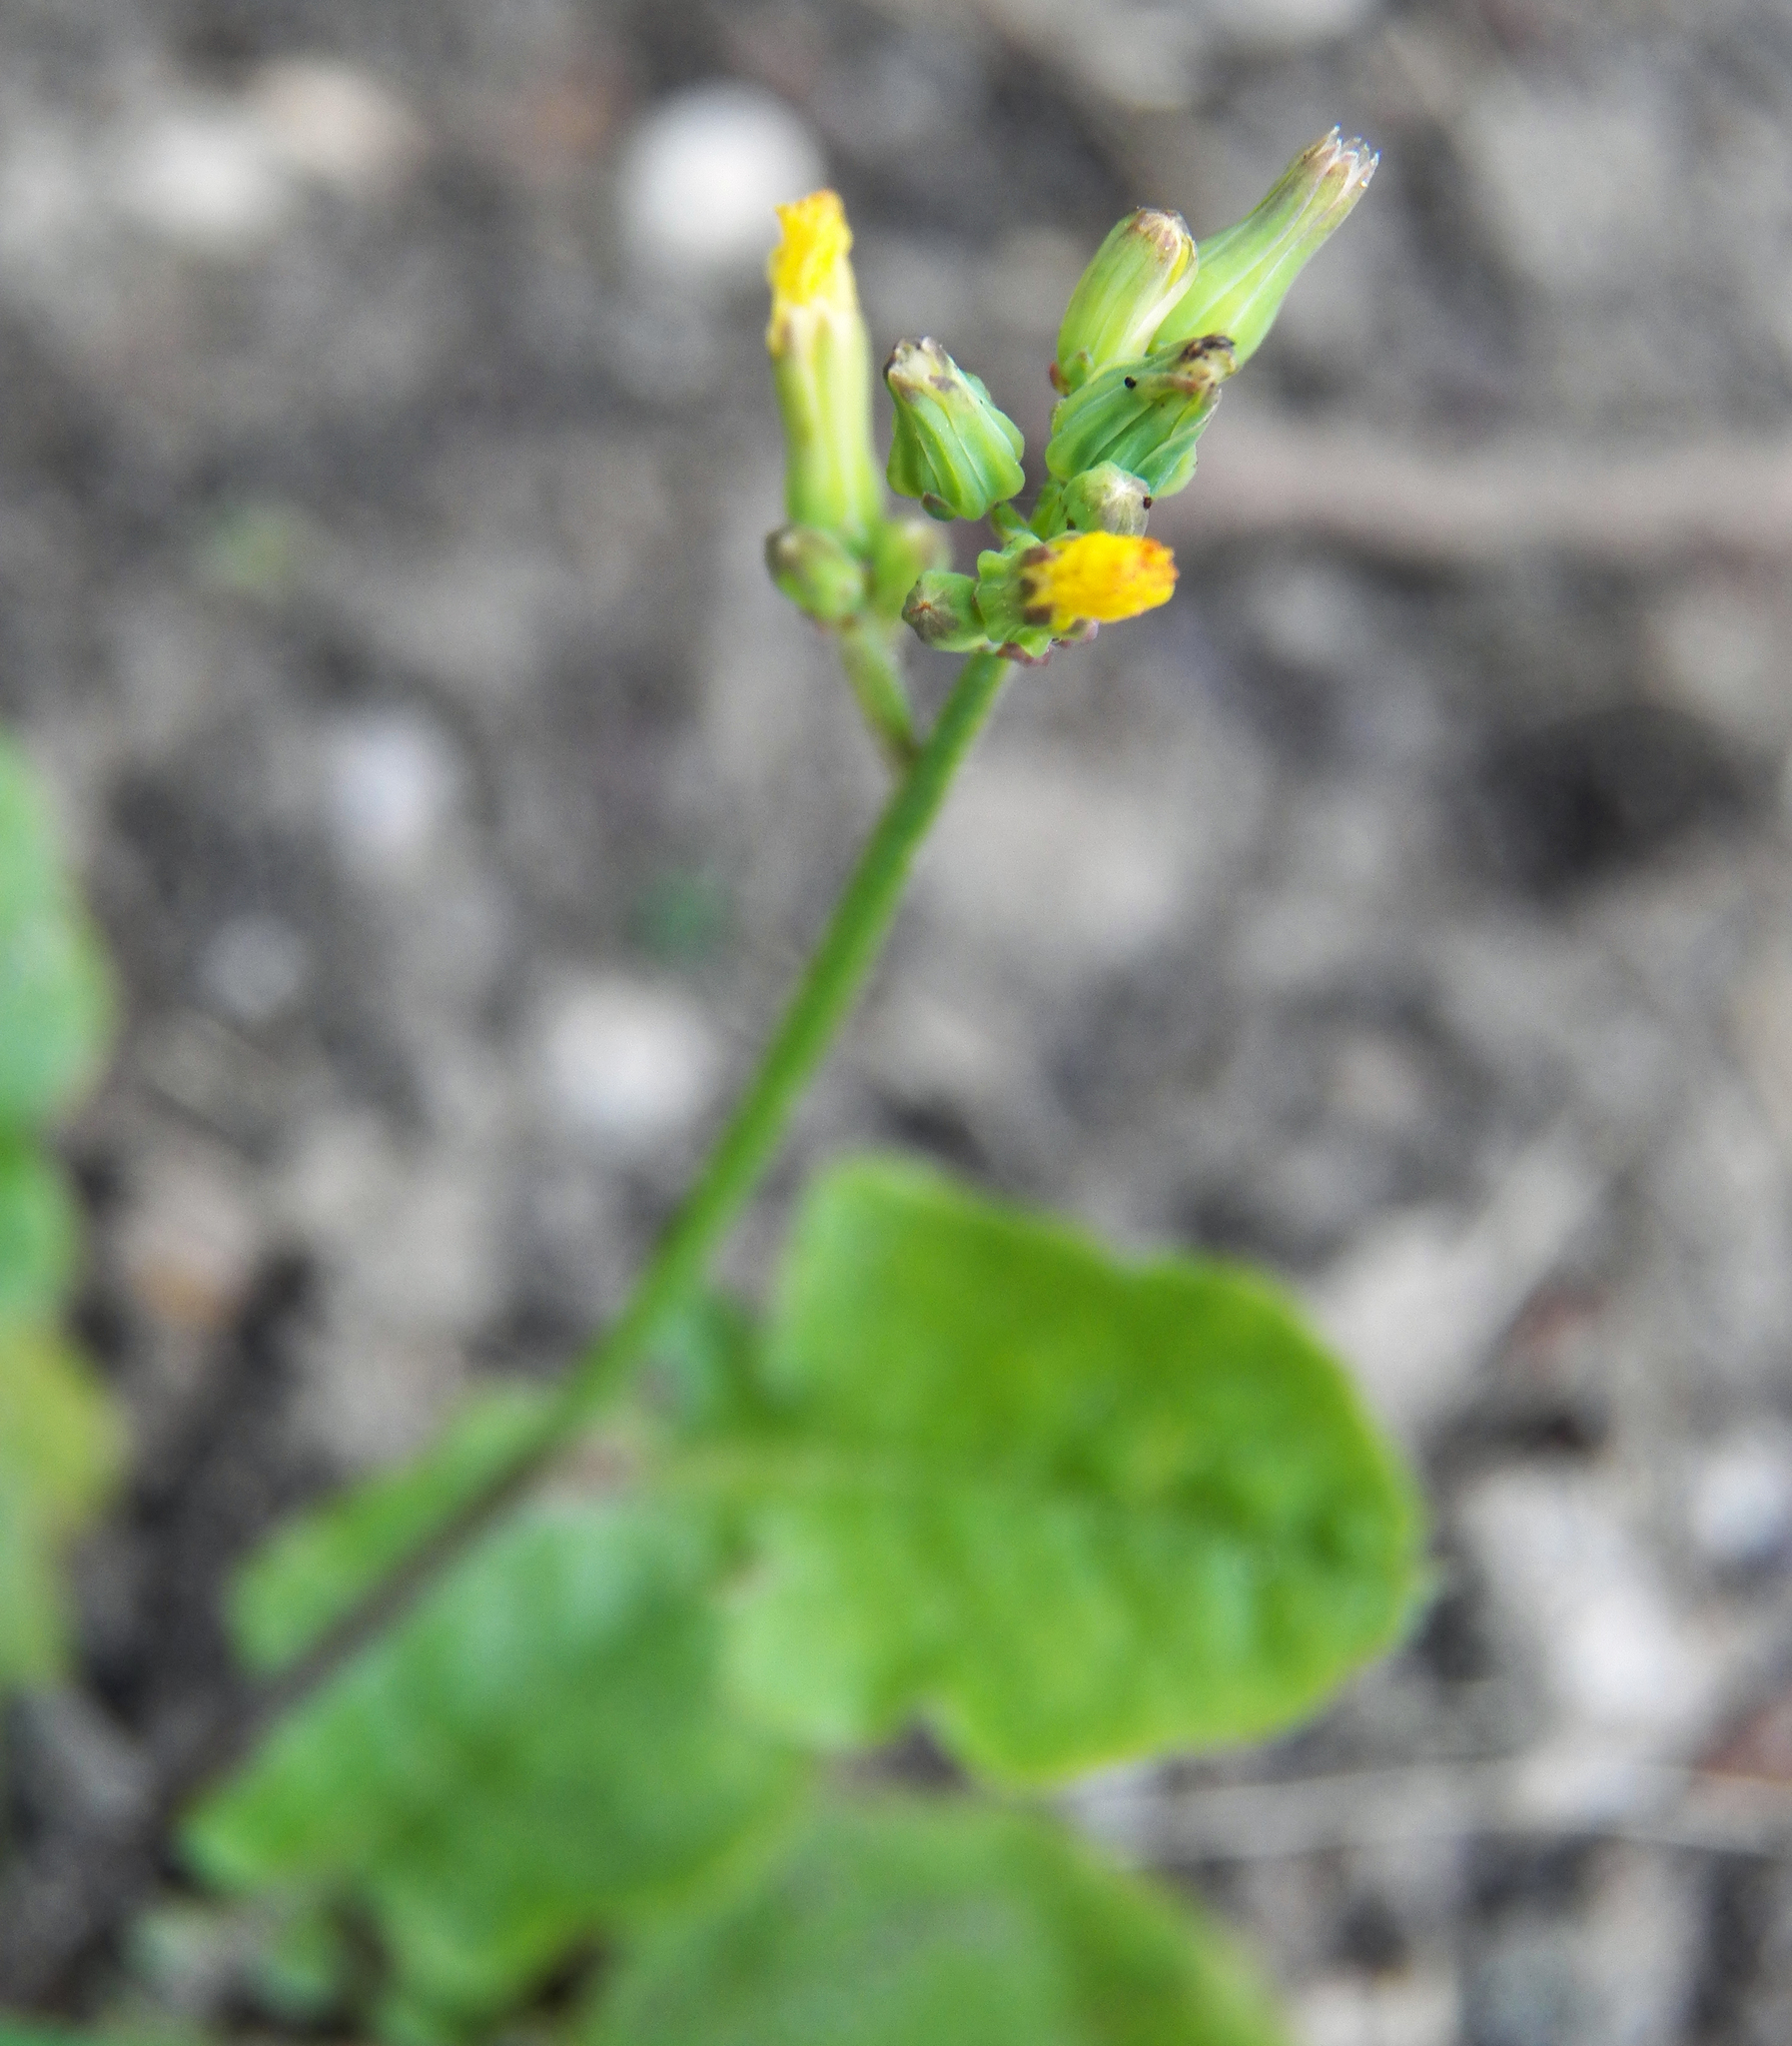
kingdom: Plantae
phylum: Tracheophyta
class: Magnoliopsida
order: Asterales
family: Asteraceae
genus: Youngia
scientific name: Youngia japonica
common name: Oriental false hawksbeard
